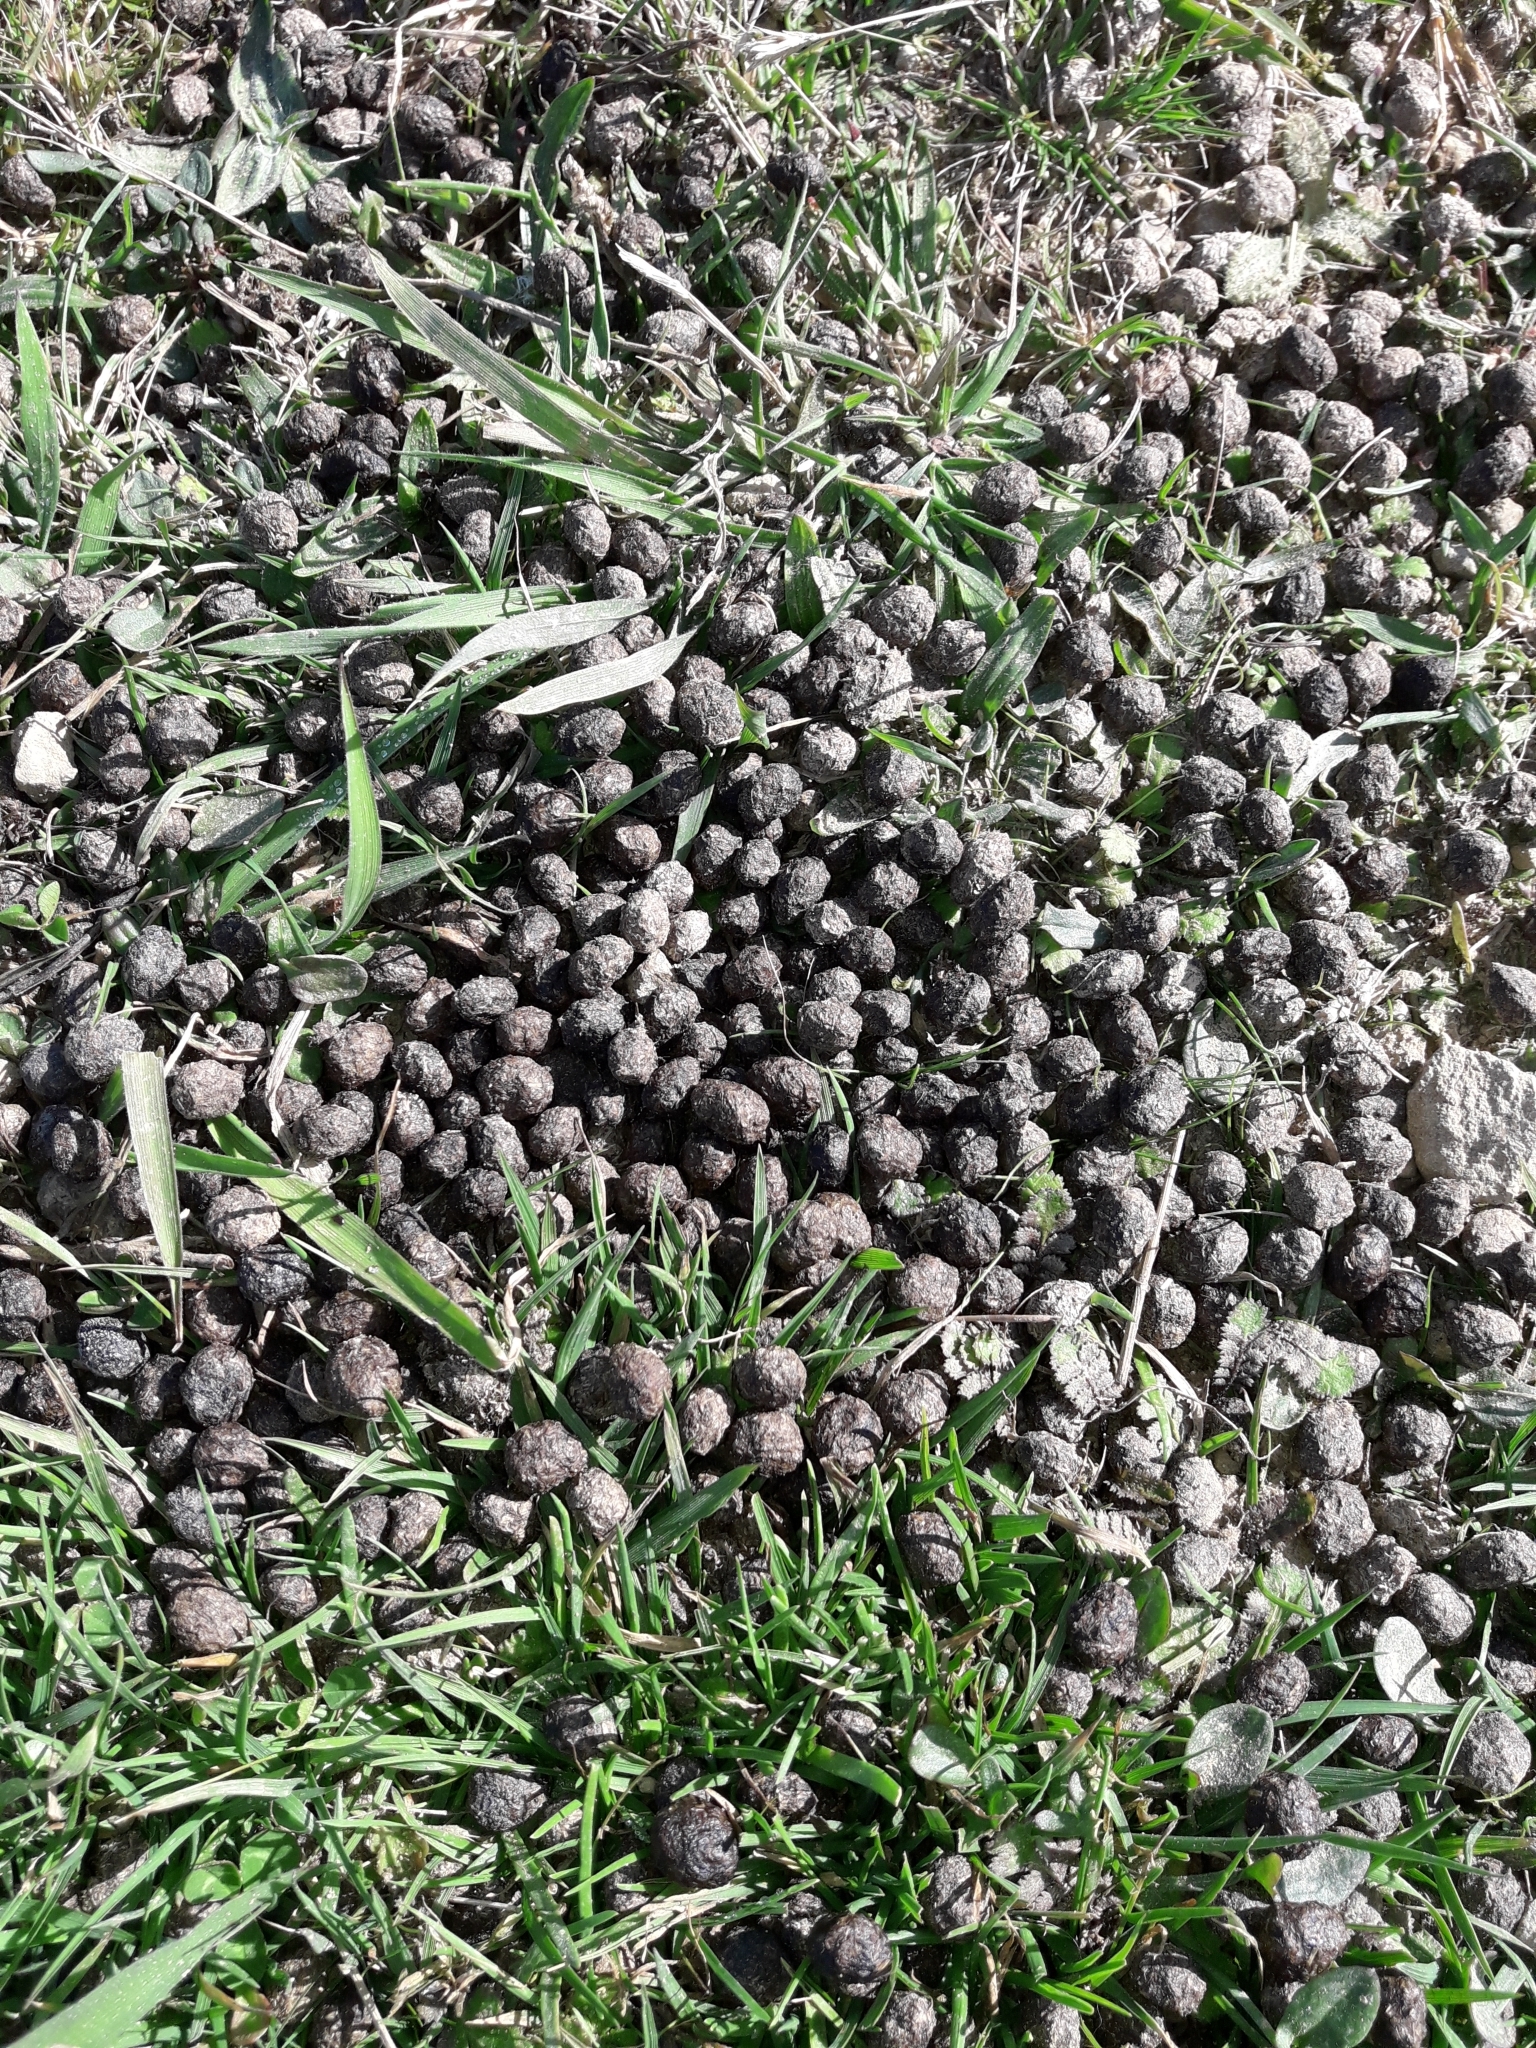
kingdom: Animalia
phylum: Chordata
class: Mammalia
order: Lagomorpha
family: Leporidae
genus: Oryctolagus
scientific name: Oryctolagus cuniculus
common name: European rabbit
